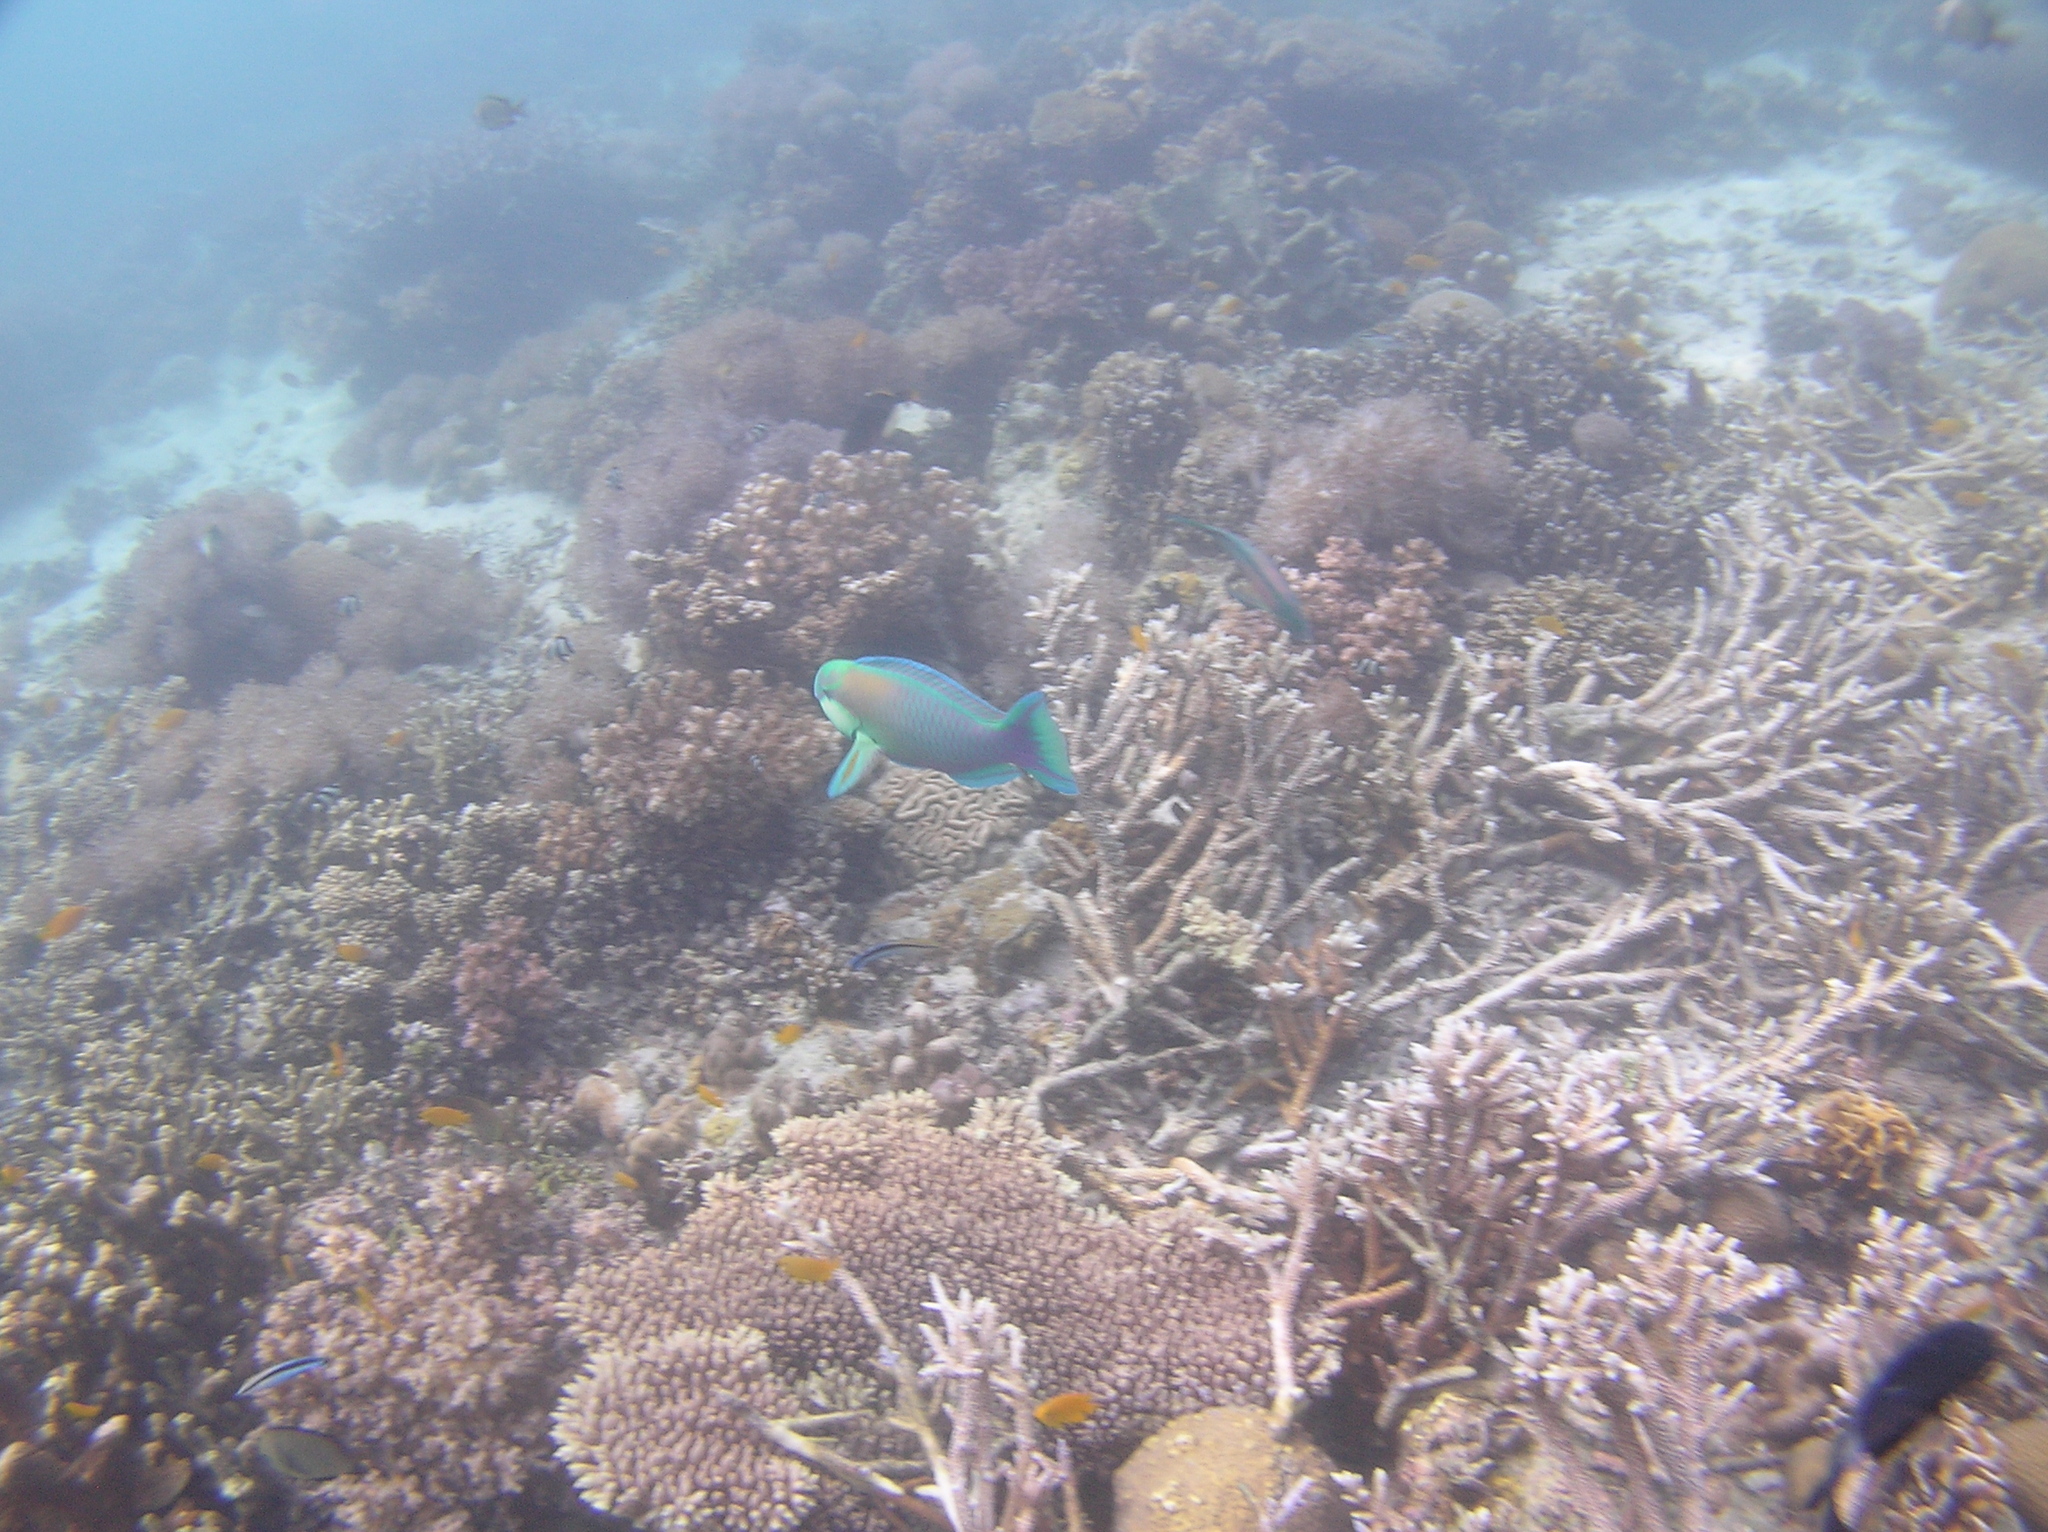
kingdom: Animalia
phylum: Chordata
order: Perciformes
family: Scaridae
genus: Chlorurus
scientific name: Chlorurus bleekeri
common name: Bleeker's parrotfish
